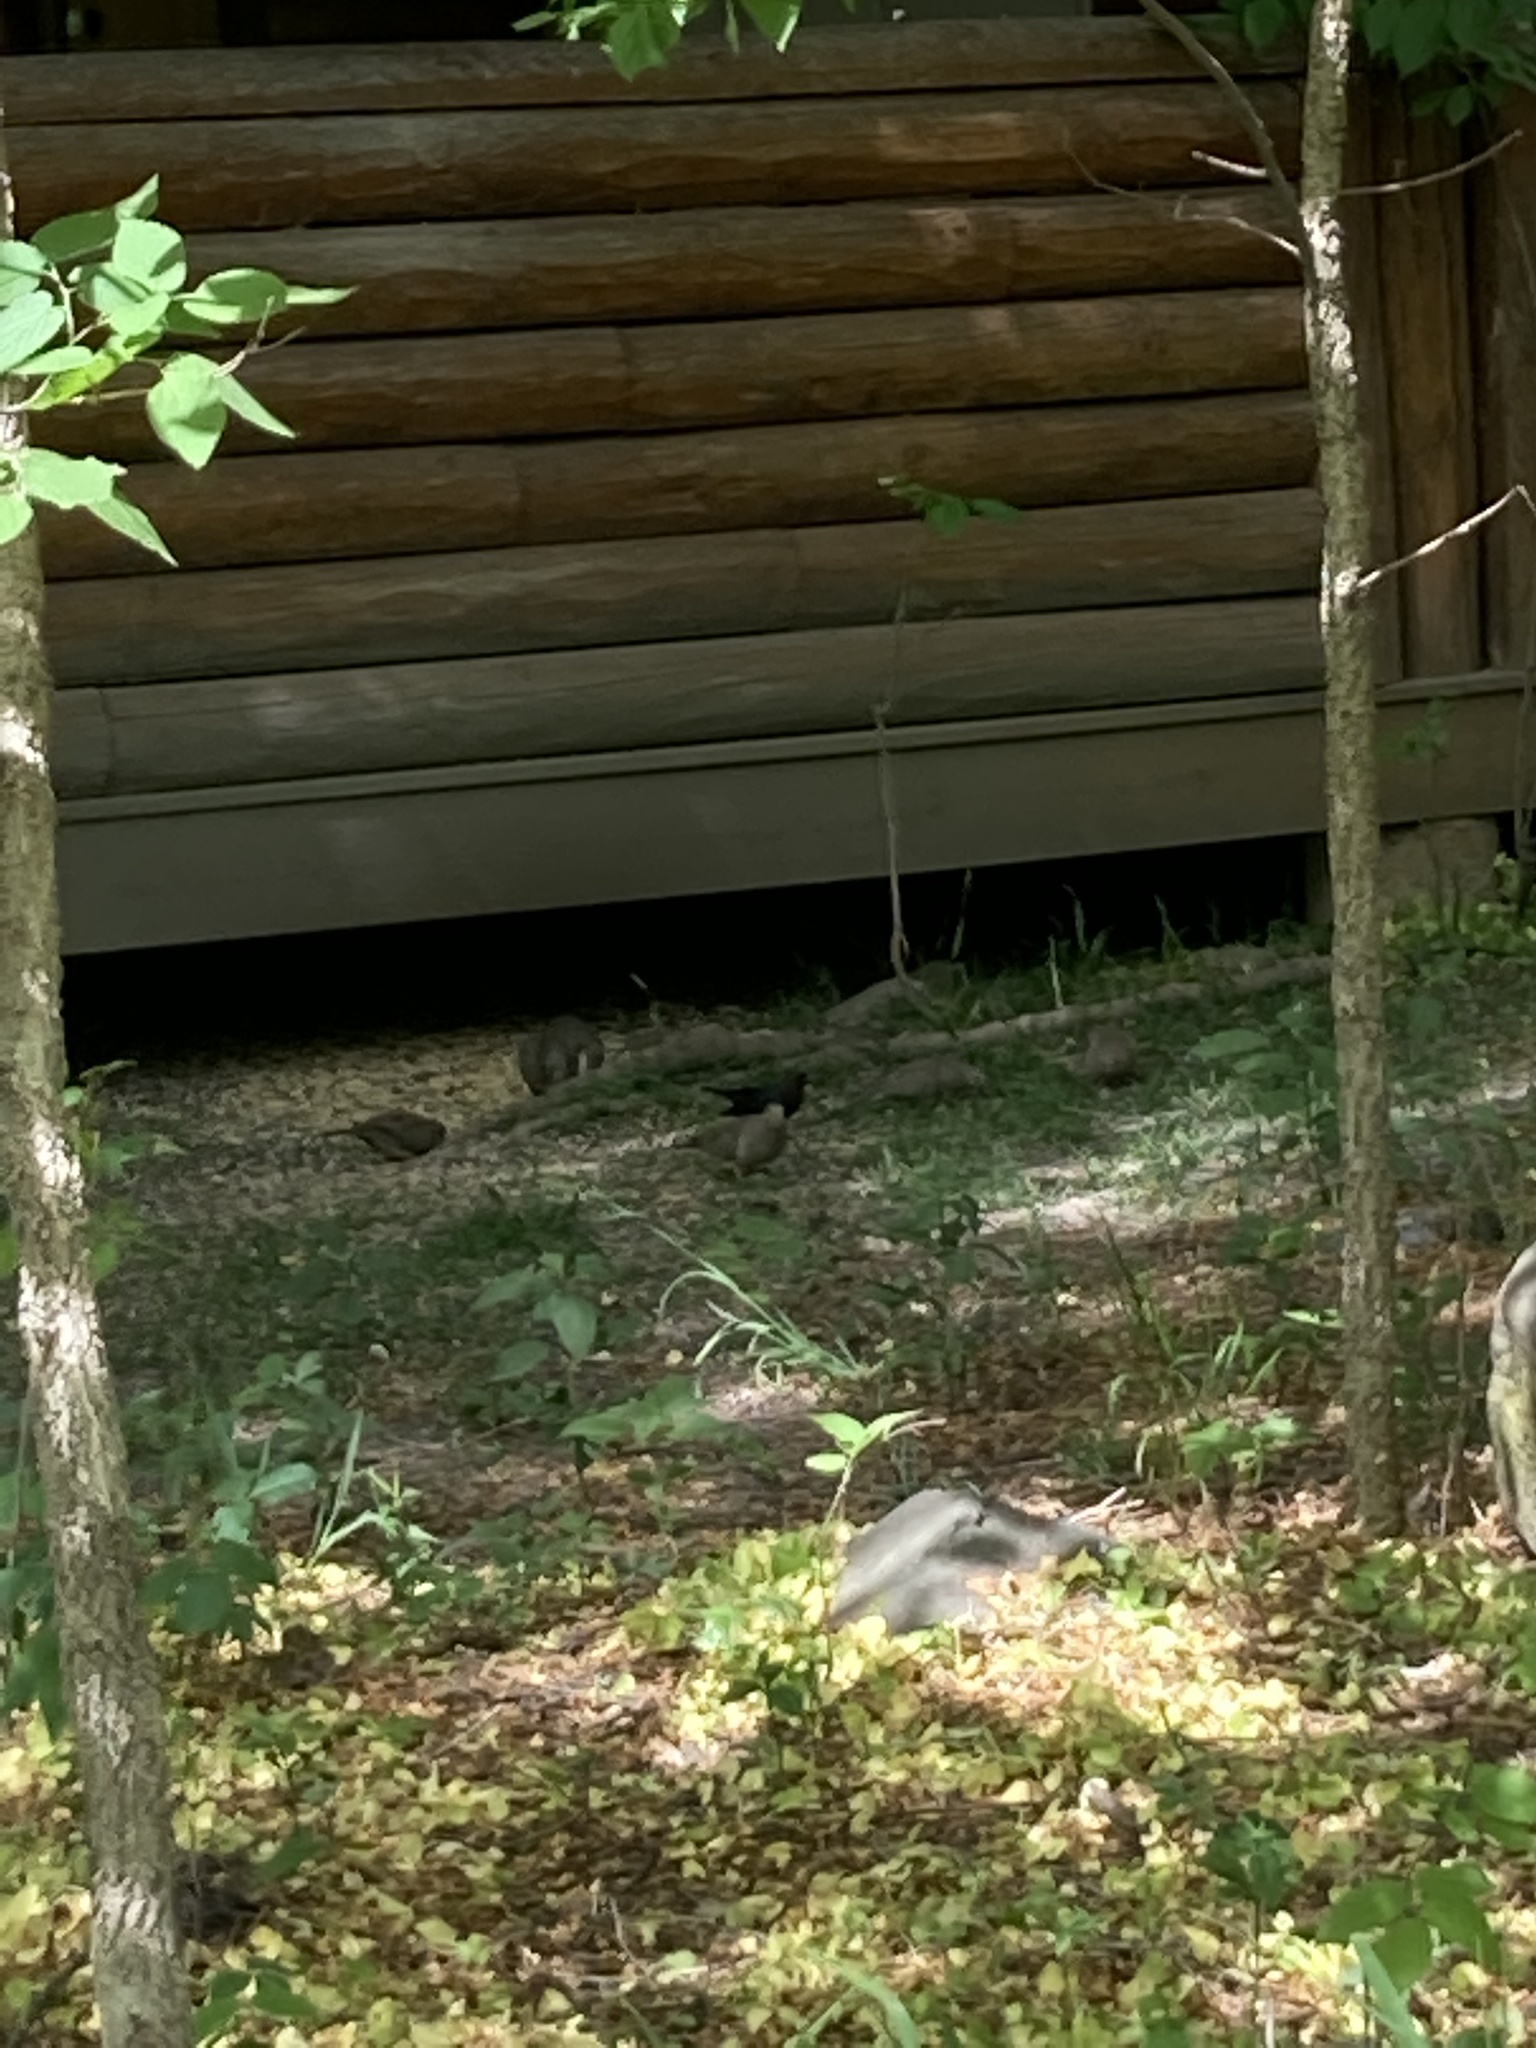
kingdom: Animalia
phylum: Chordata
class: Aves
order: Columbiformes
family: Columbidae
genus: Zenaida
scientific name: Zenaida macroura
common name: Mourning dove
